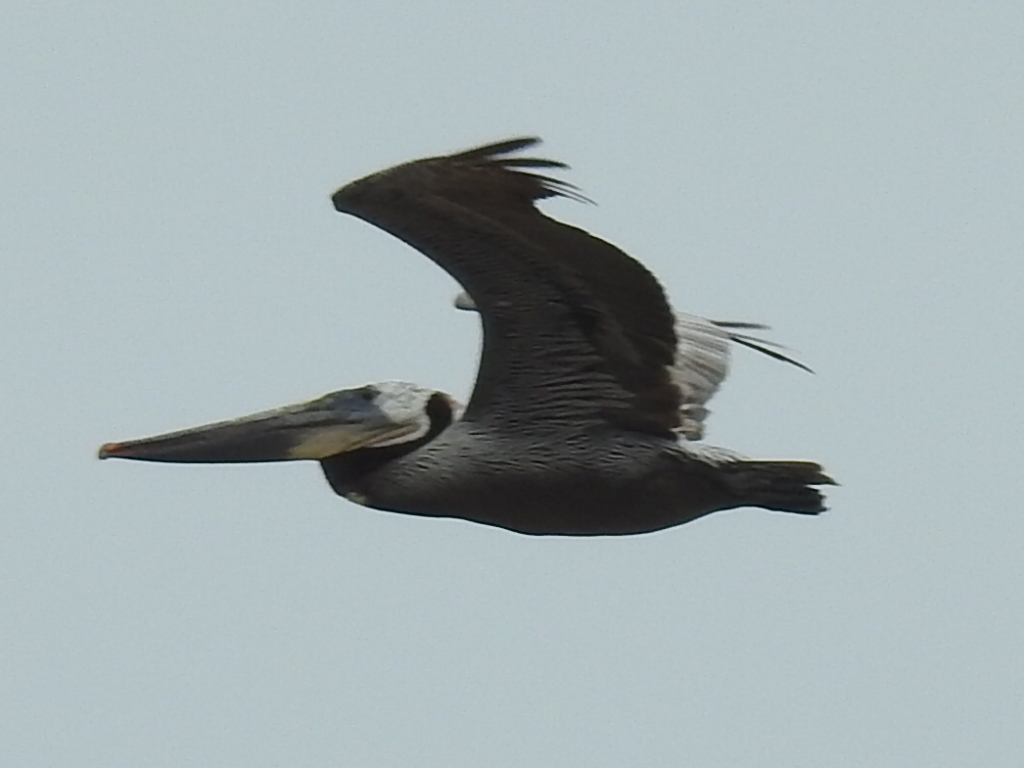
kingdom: Animalia
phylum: Chordata
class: Aves
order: Pelecaniformes
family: Pelecanidae
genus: Pelecanus
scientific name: Pelecanus occidentalis
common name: Brown pelican
